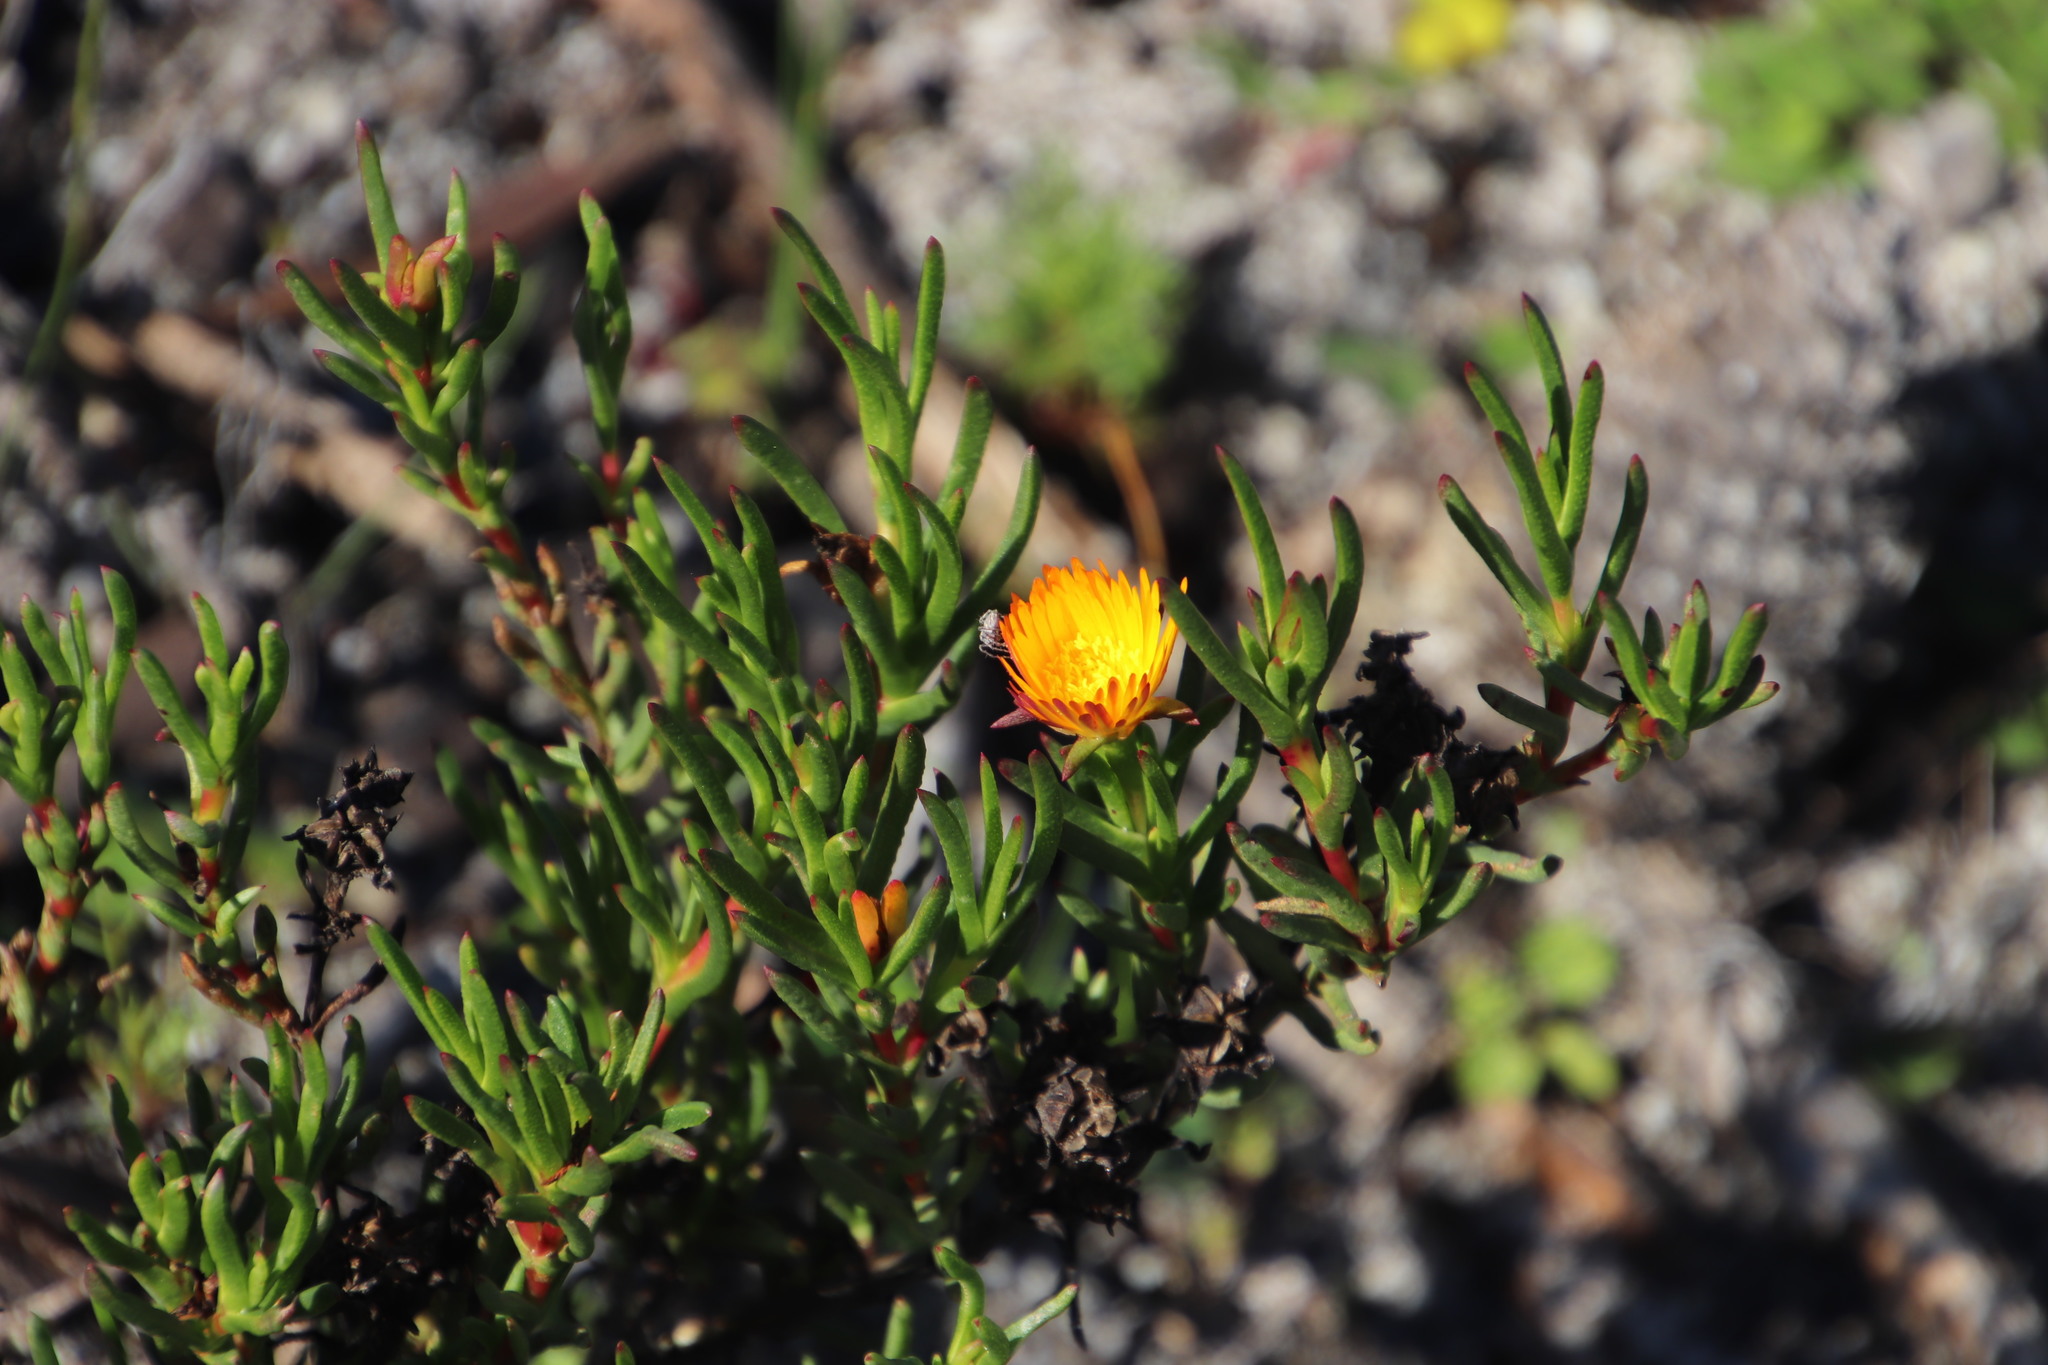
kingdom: Plantae
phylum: Tracheophyta
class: Magnoliopsida
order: Caryophyllales
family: Aizoaceae
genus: Lampranthus
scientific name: Lampranthus bicolor
